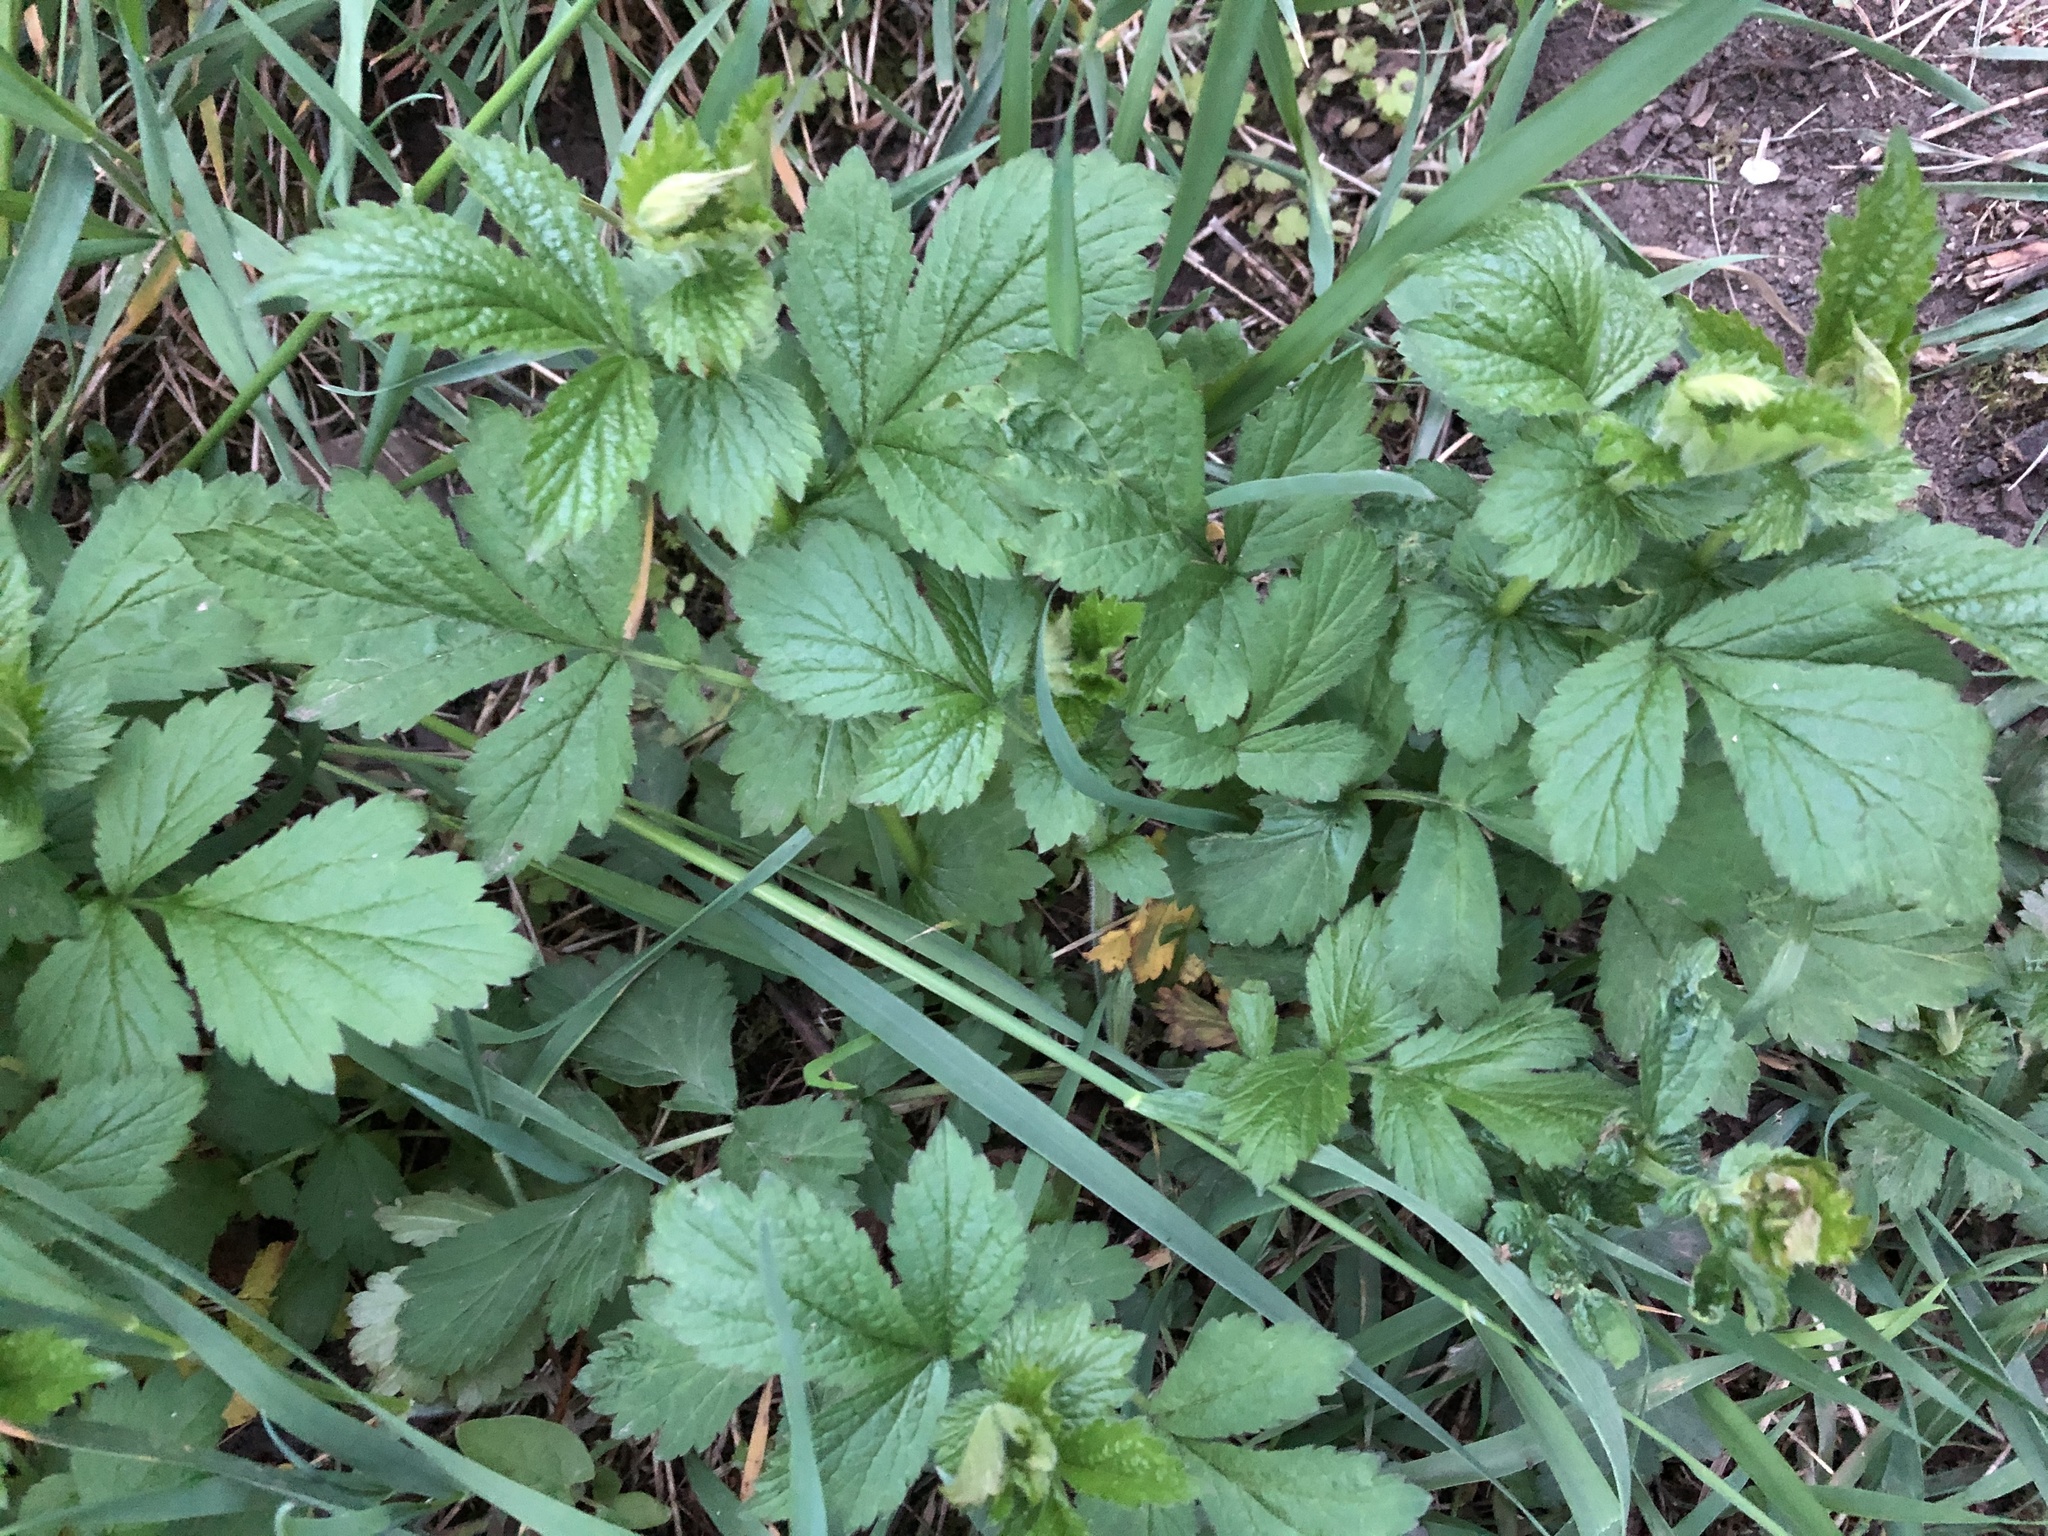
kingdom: Plantae
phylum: Tracheophyta
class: Magnoliopsida
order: Rosales
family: Rosaceae
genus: Geum
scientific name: Geum urbanum
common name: Wood avens
